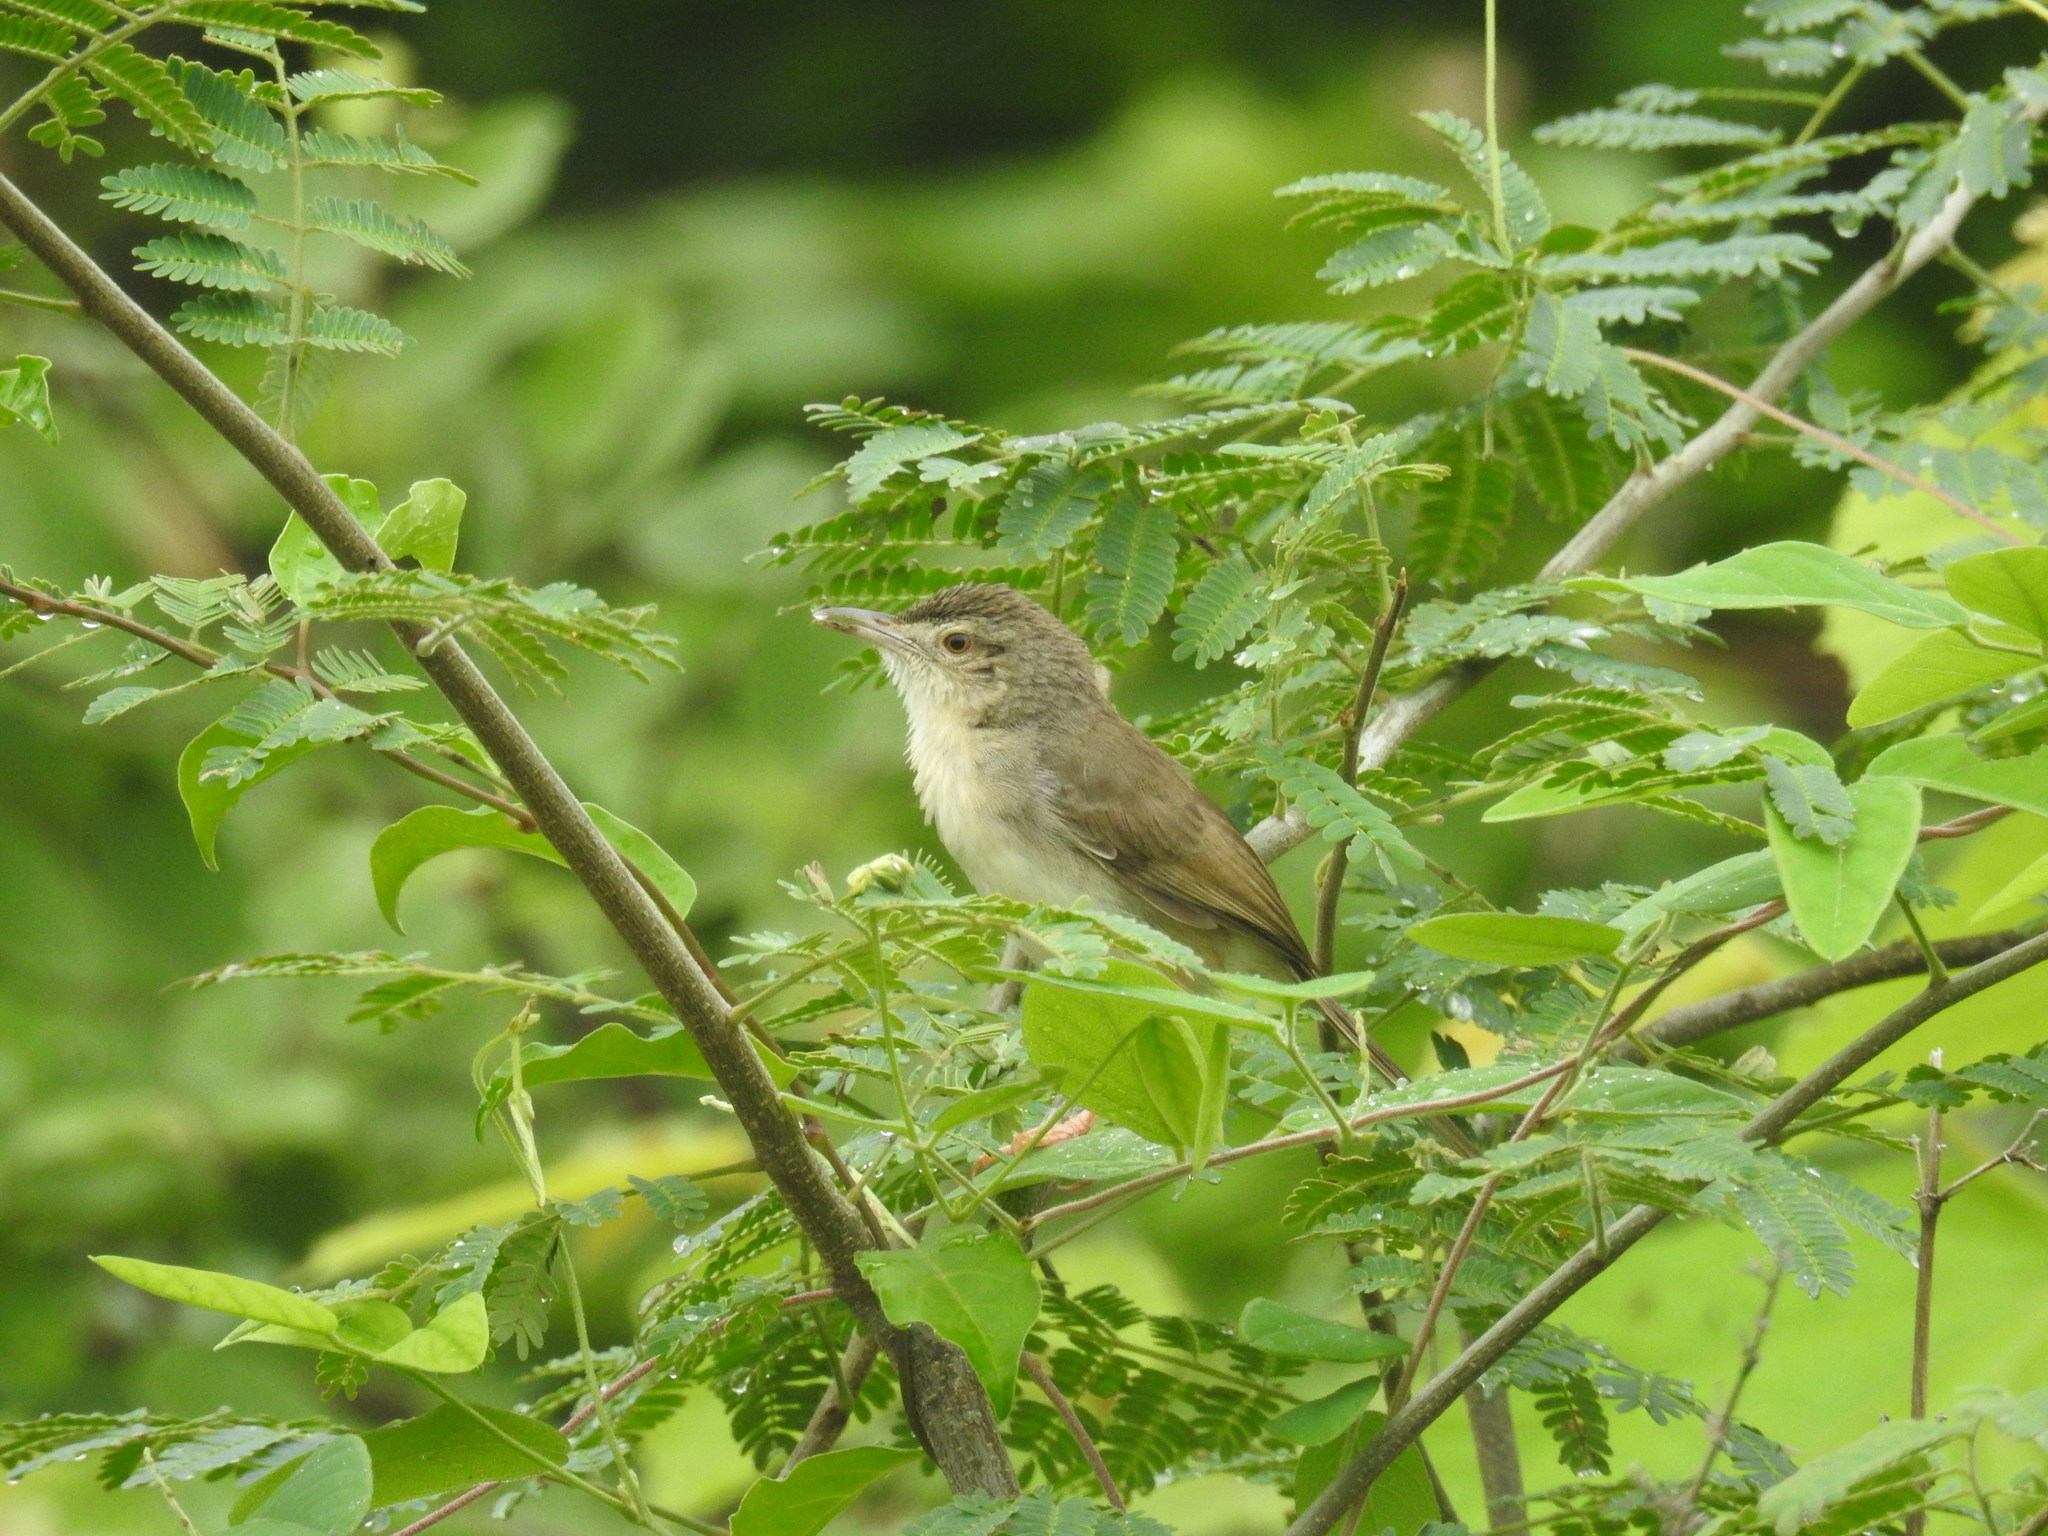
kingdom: Animalia
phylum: Chordata
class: Aves
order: Passeriformes
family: Cisticolidae
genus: Prinia
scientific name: Prinia inornata
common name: Plain prinia
